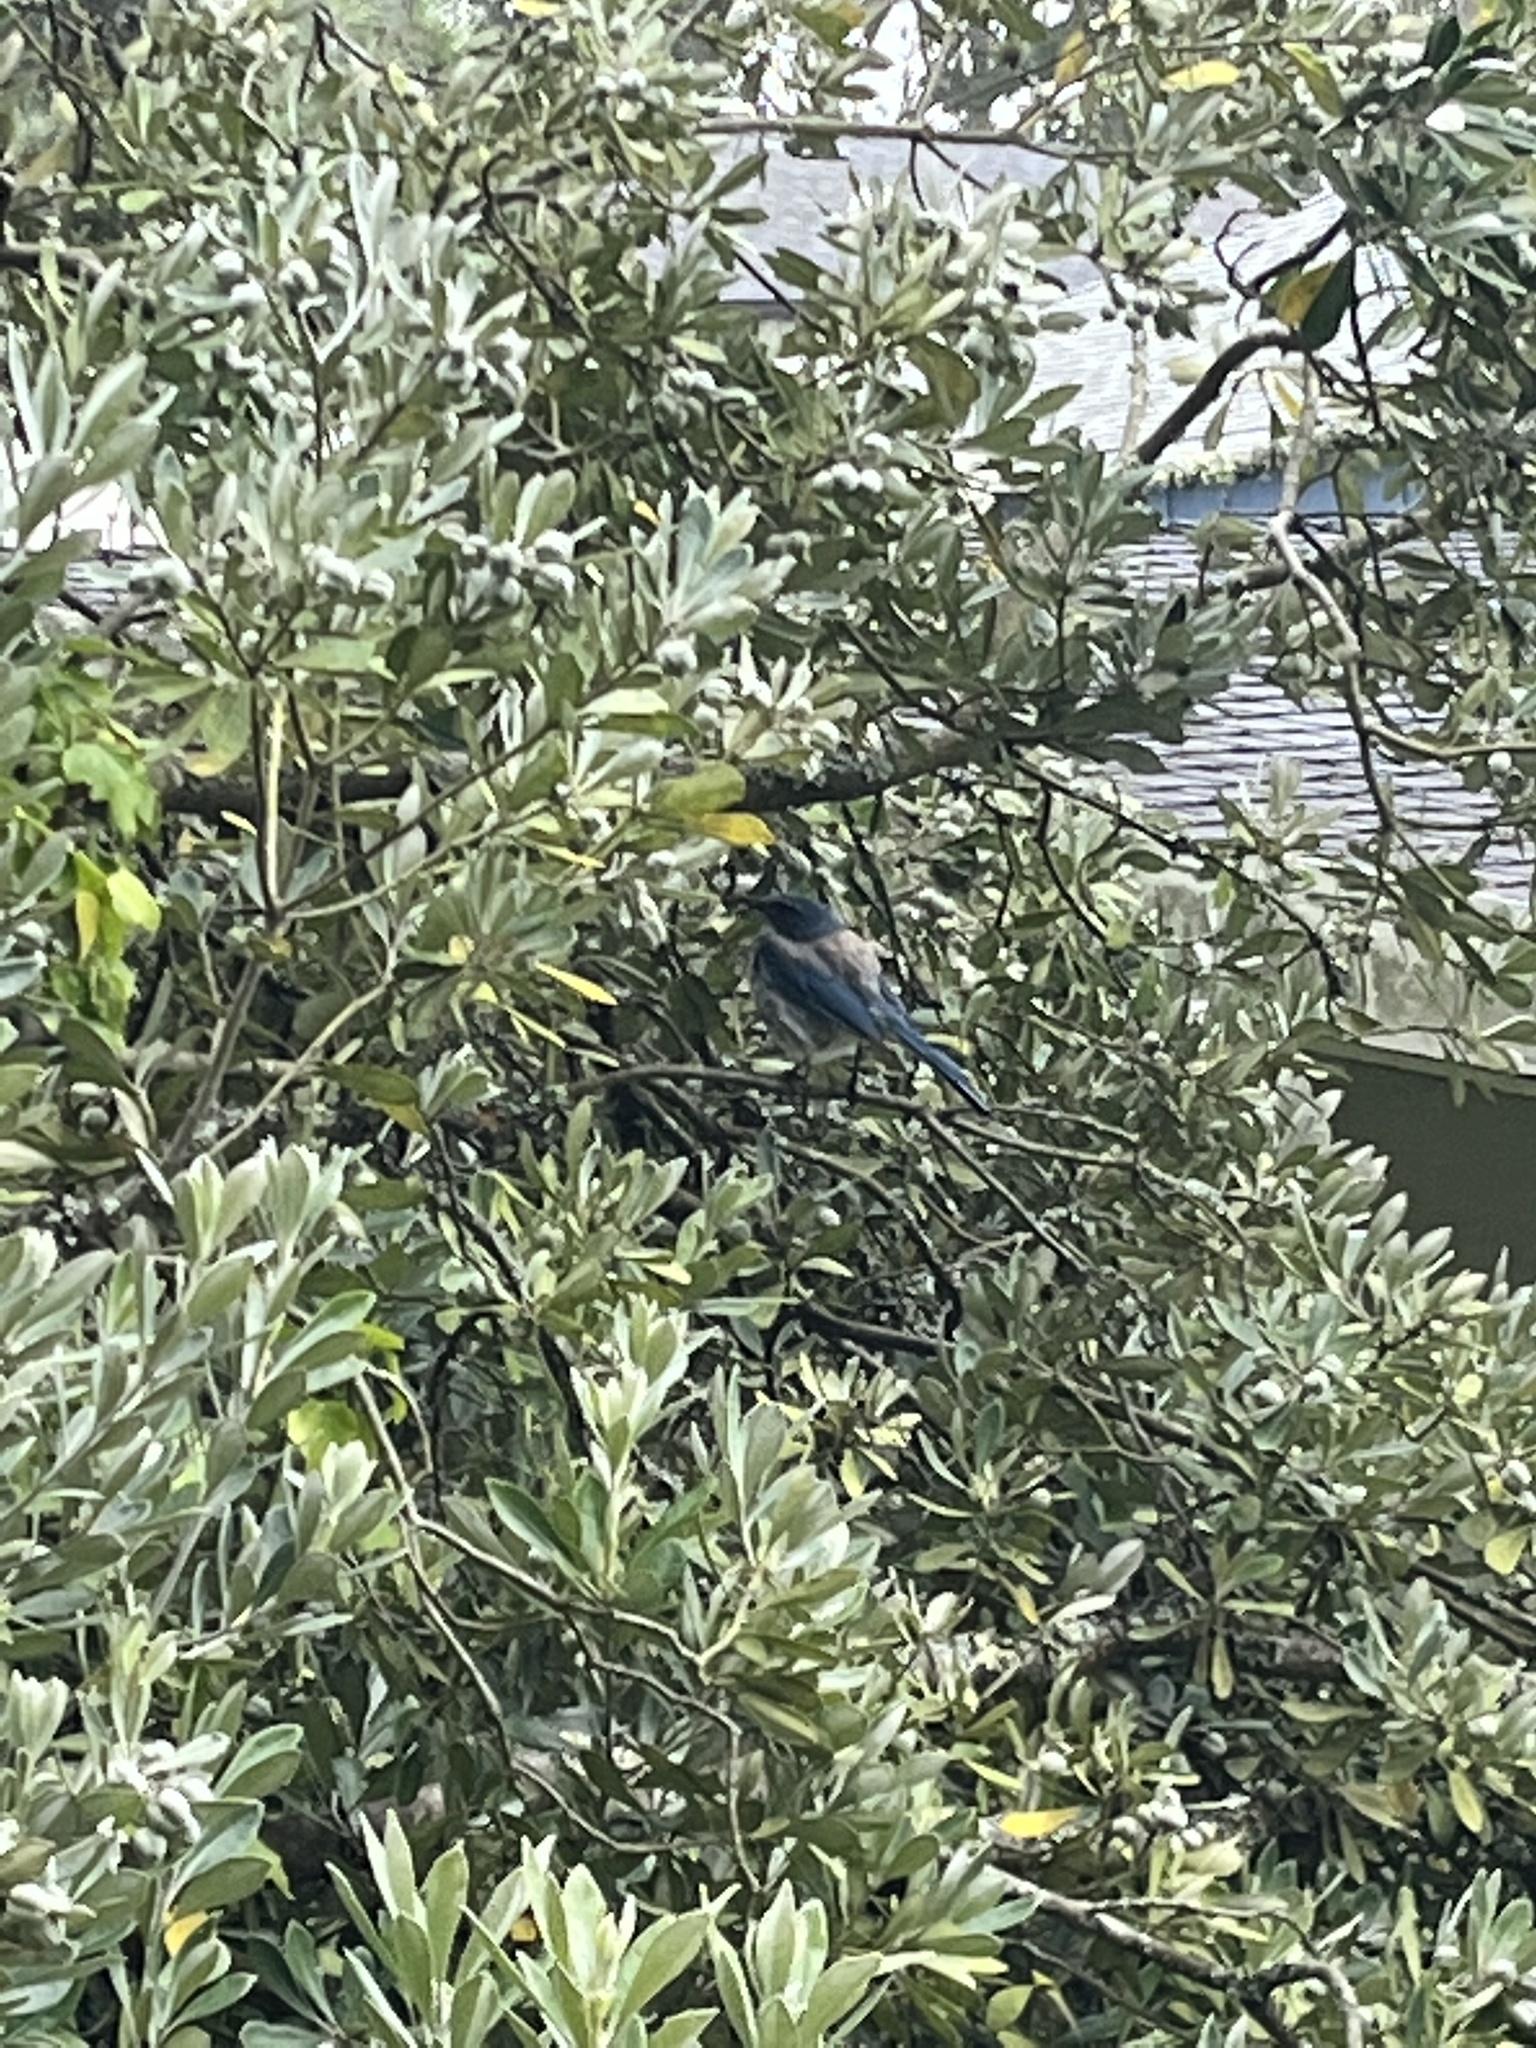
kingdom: Animalia
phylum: Chordata
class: Aves
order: Passeriformes
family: Corvidae
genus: Aphelocoma
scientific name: Aphelocoma californica
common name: California scrub-jay
